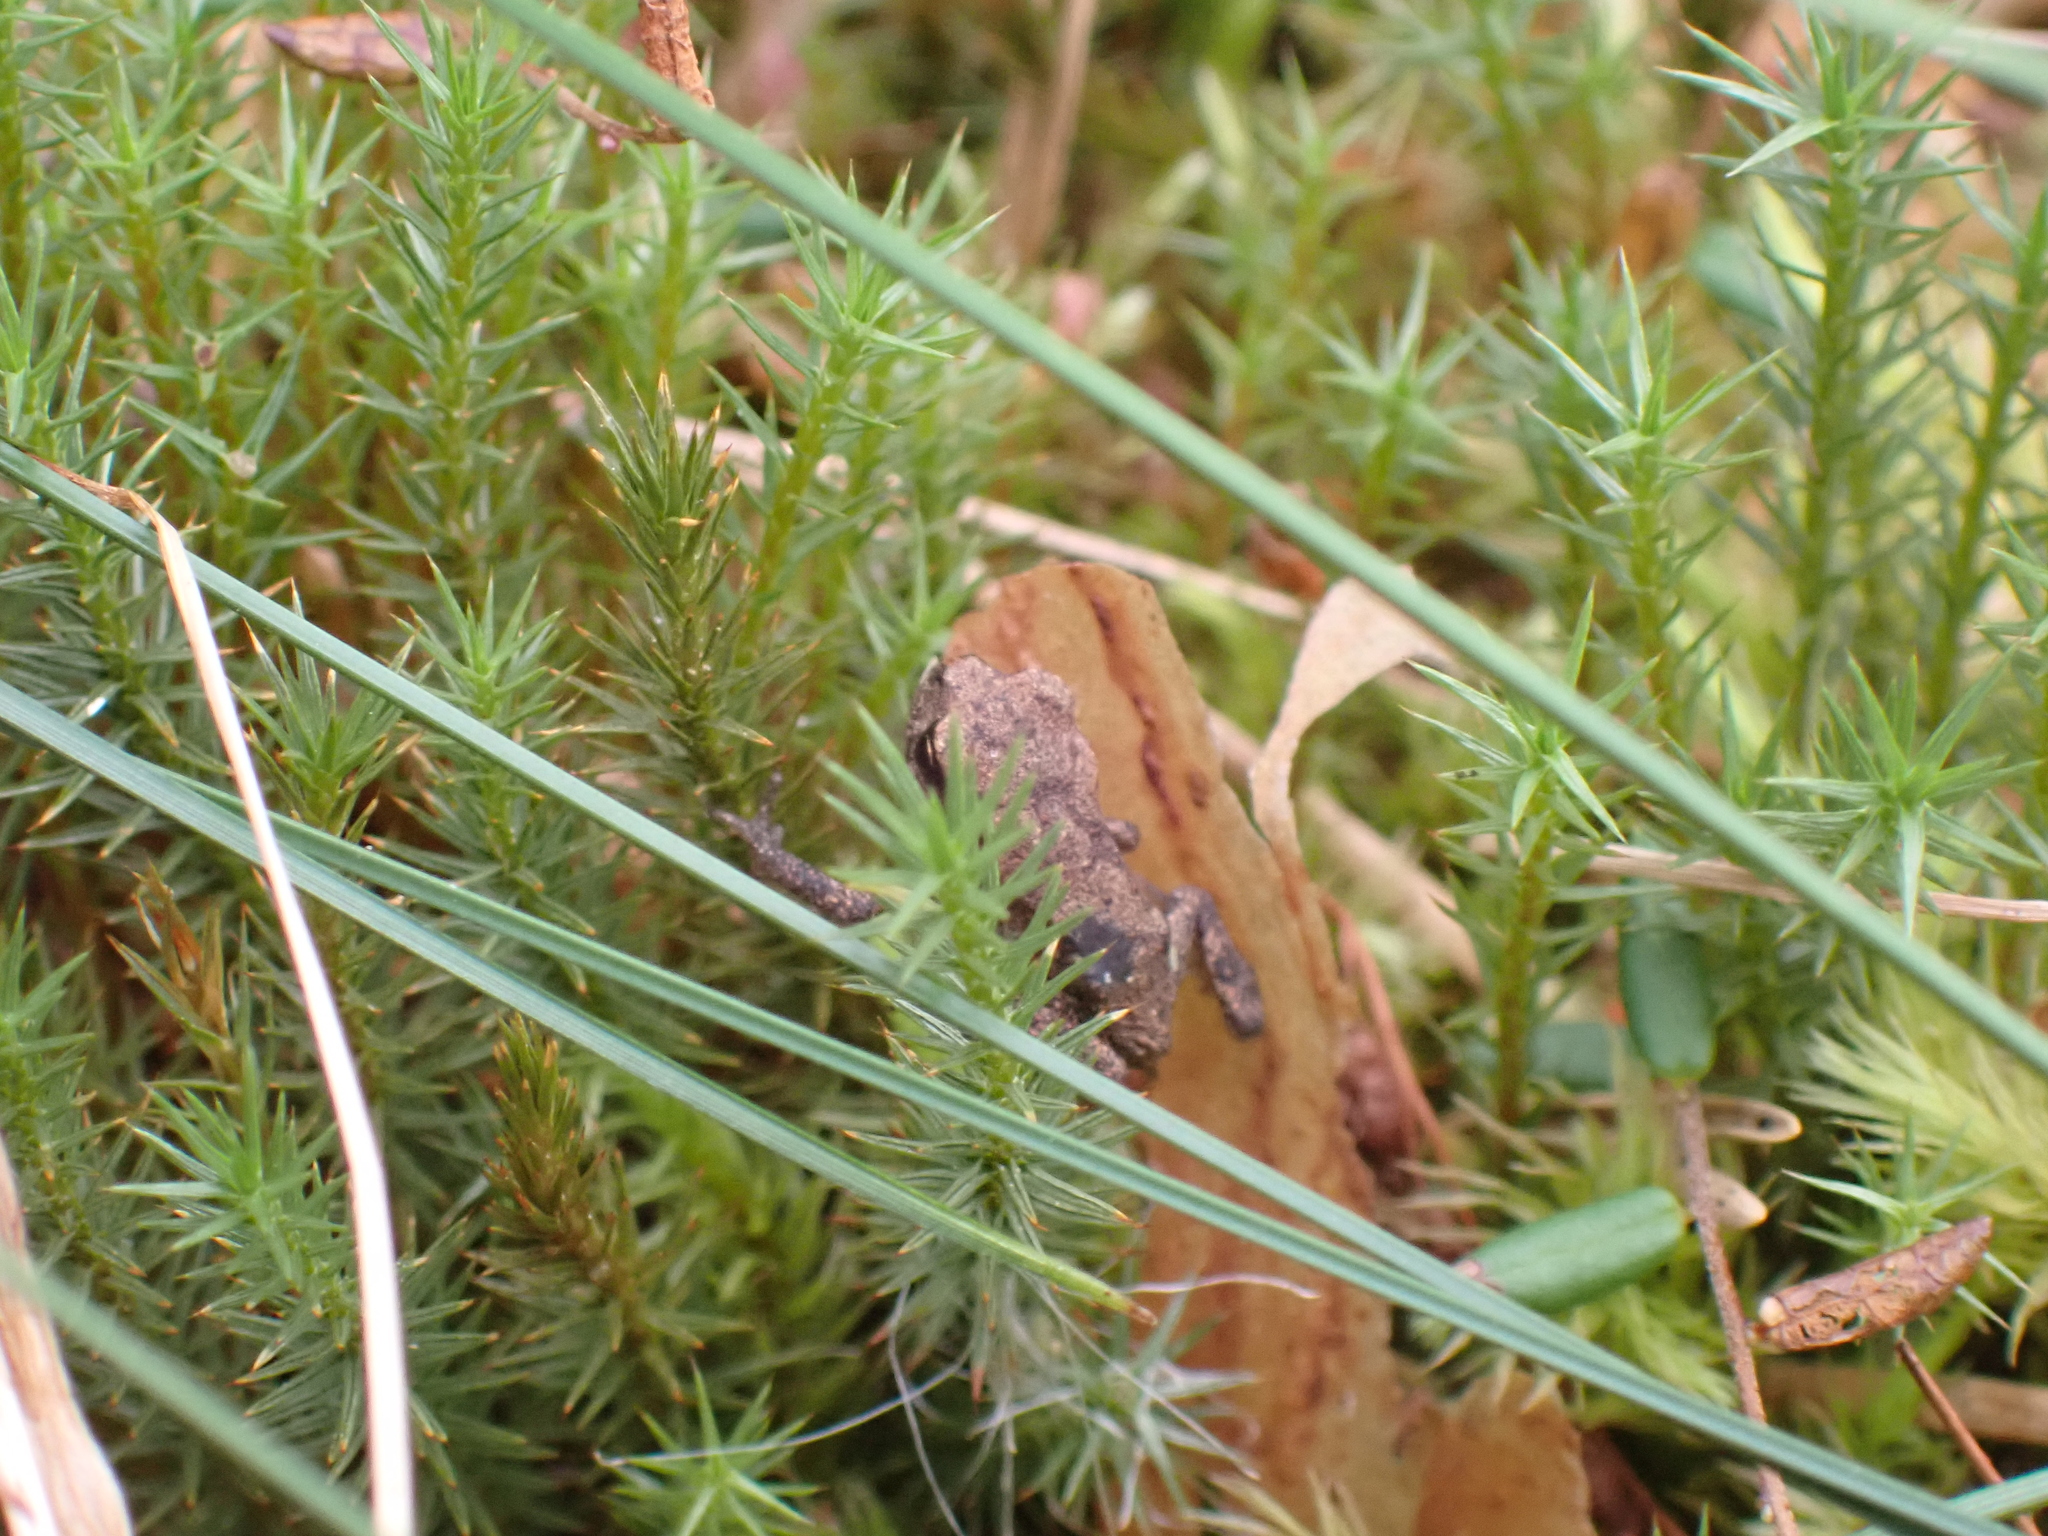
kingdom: Animalia
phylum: Chordata
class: Amphibia
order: Anura
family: Bufonidae
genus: Bufo
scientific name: Bufo bufo
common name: Common toad
